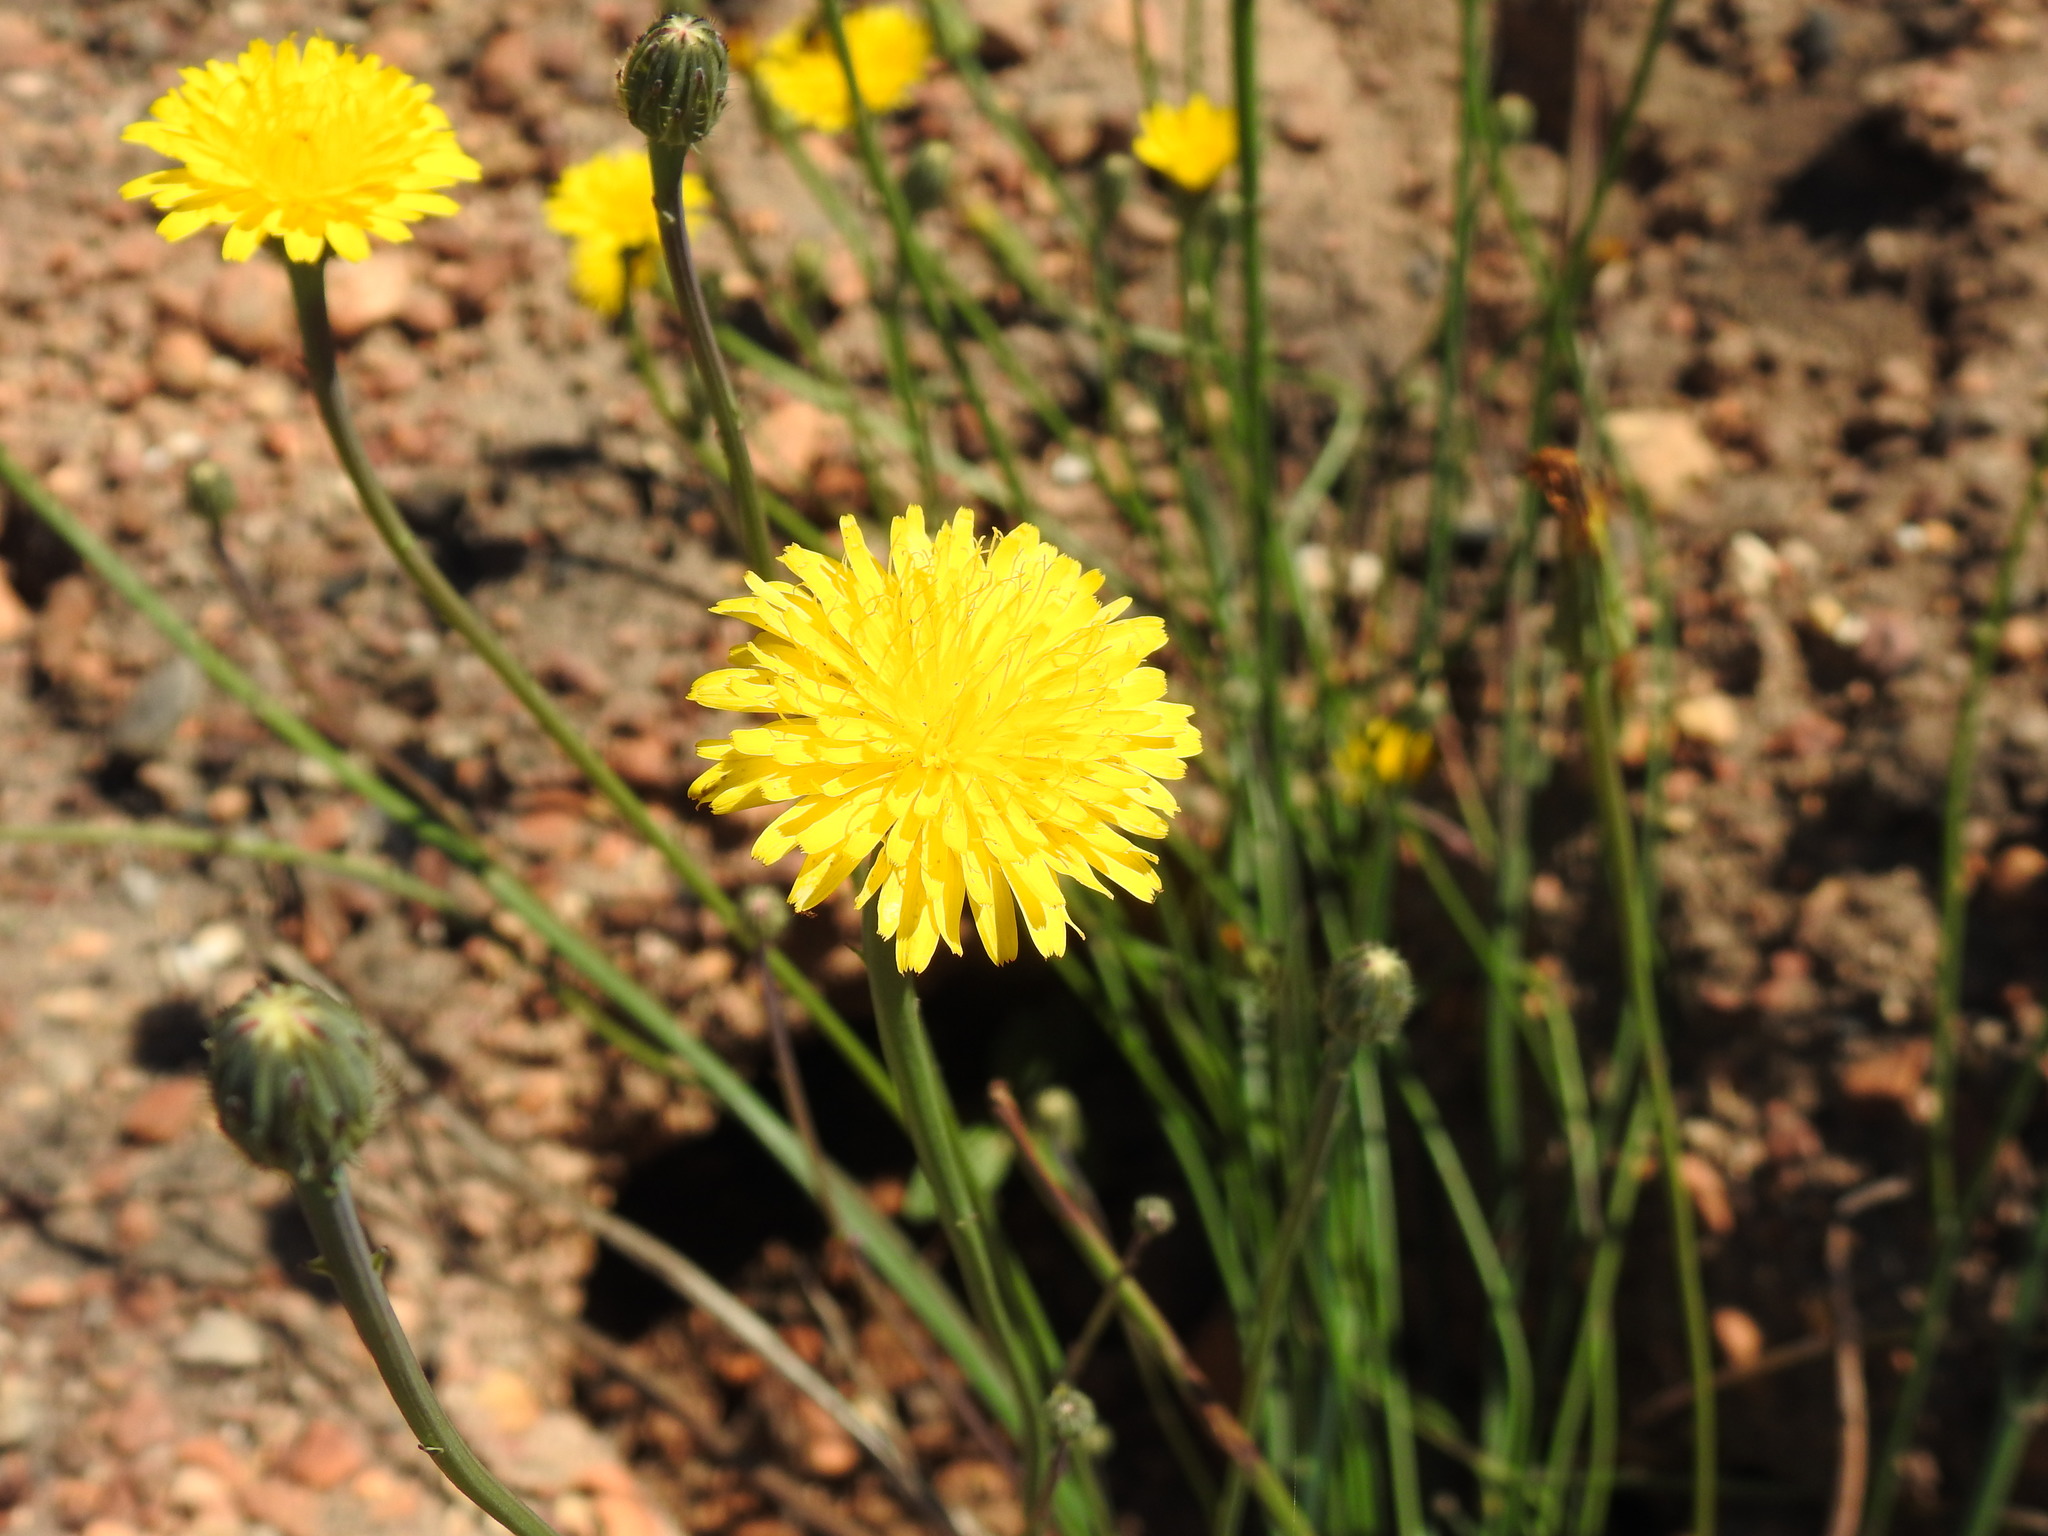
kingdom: Plantae
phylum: Tracheophyta
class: Magnoliopsida
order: Asterales
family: Asteraceae
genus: Hypochaeris
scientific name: Hypochaeris radicata
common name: Flatweed
